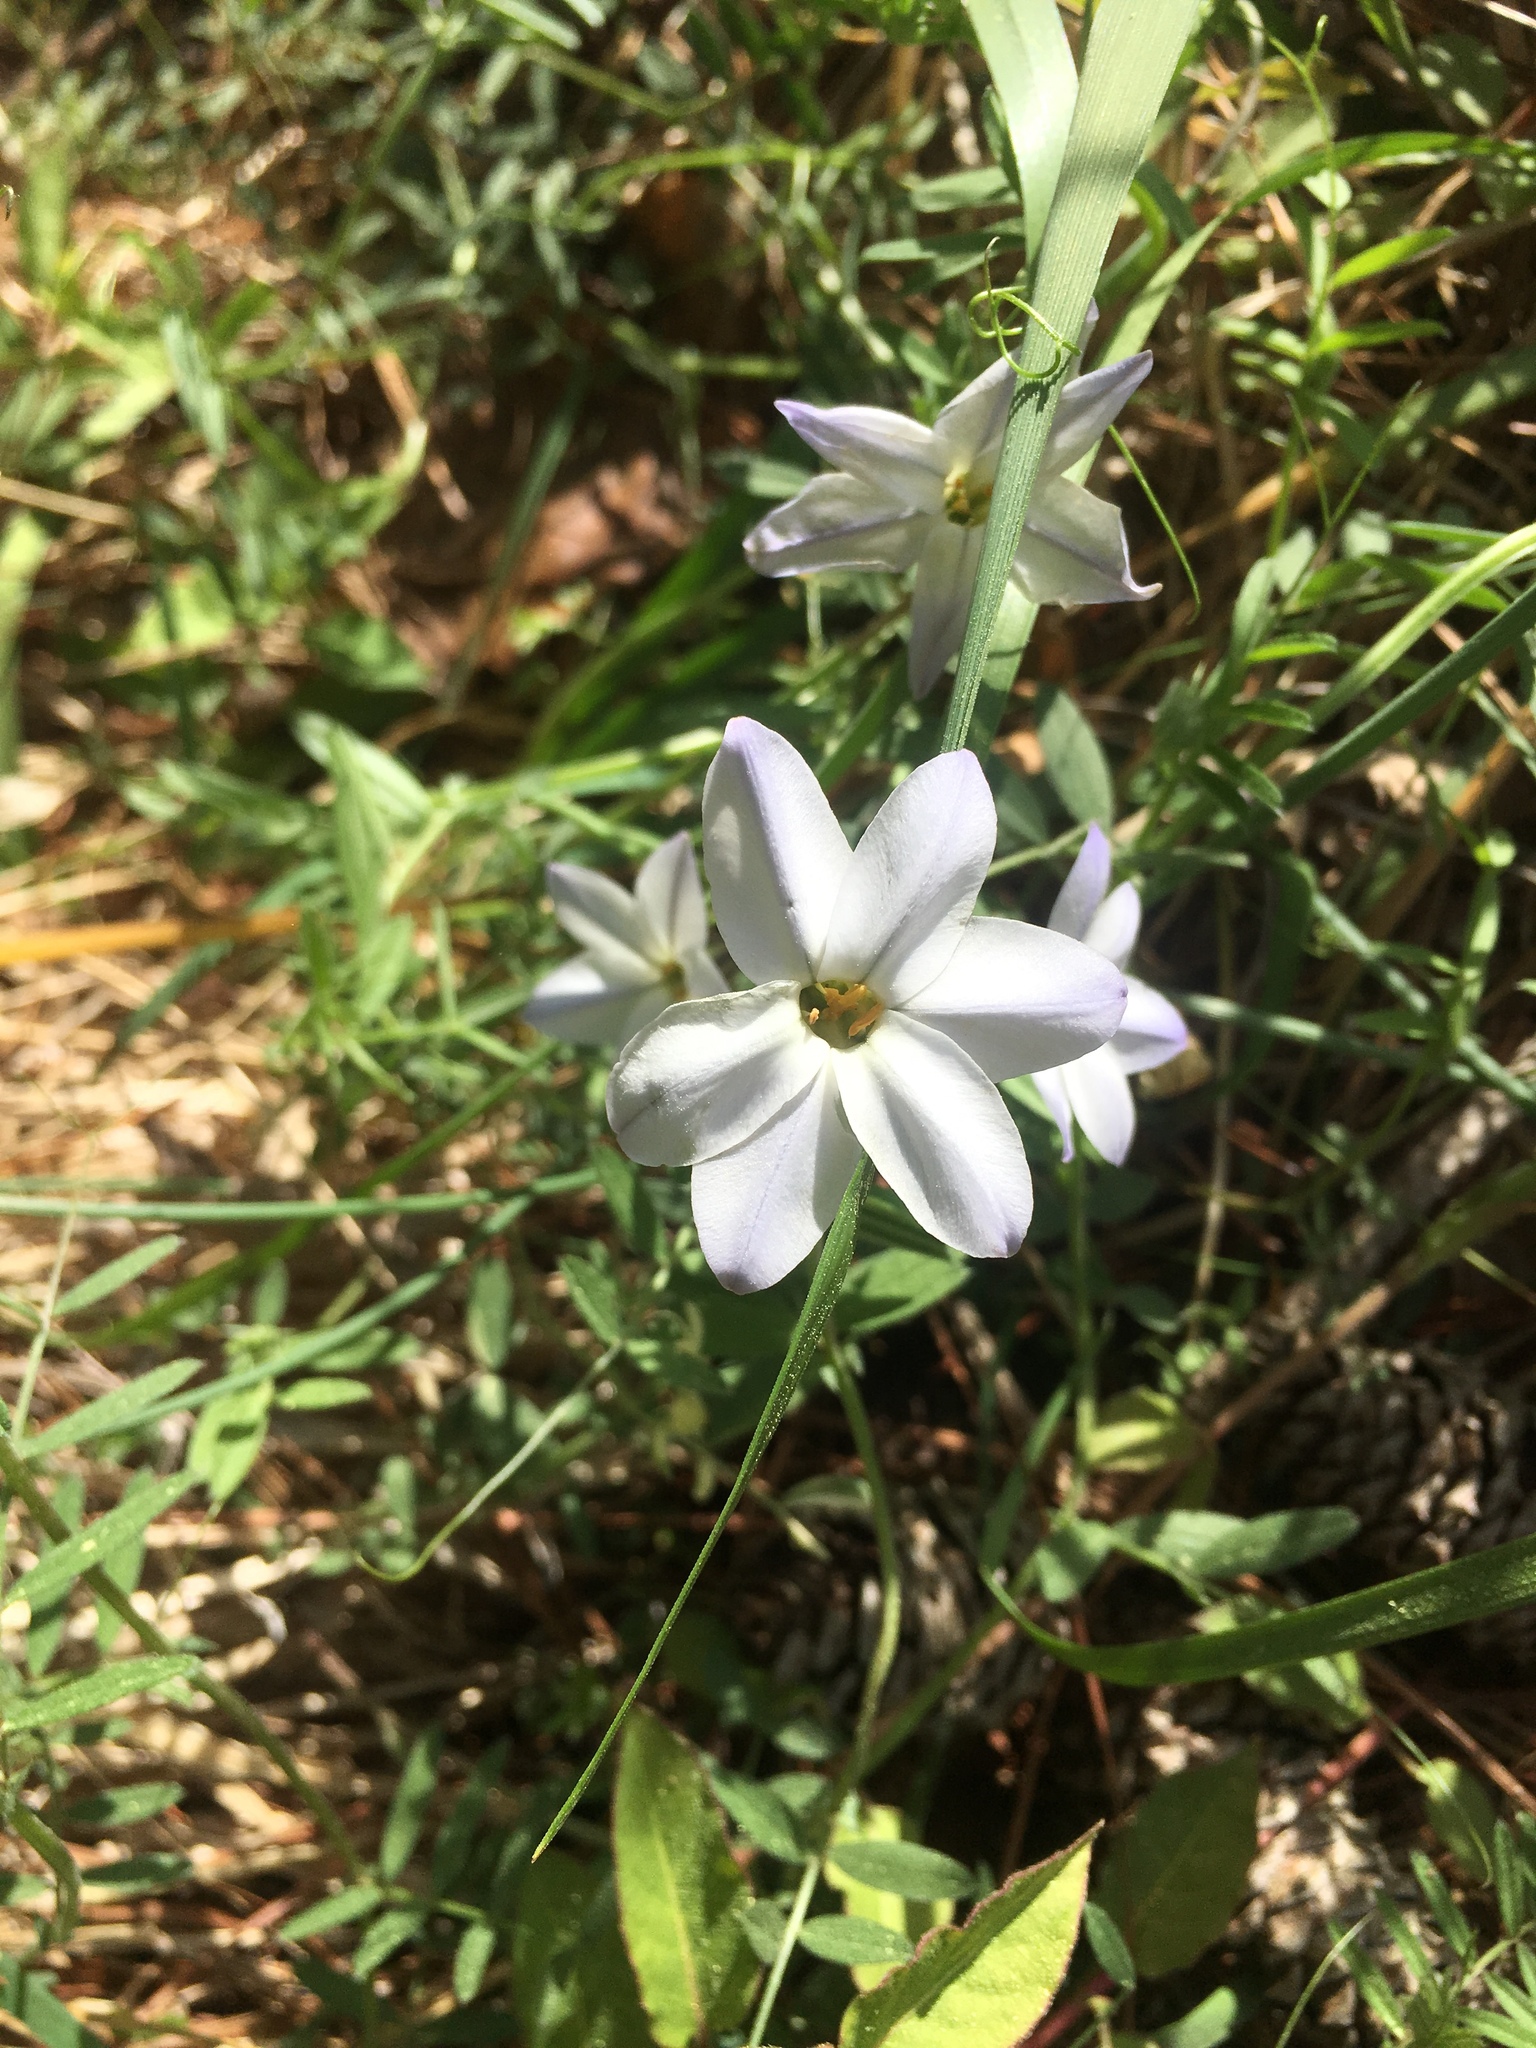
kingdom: Plantae
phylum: Tracheophyta
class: Liliopsida
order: Asparagales
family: Amaryllidaceae
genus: Ipheion
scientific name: Ipheion uniflorum
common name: Spring starflower
